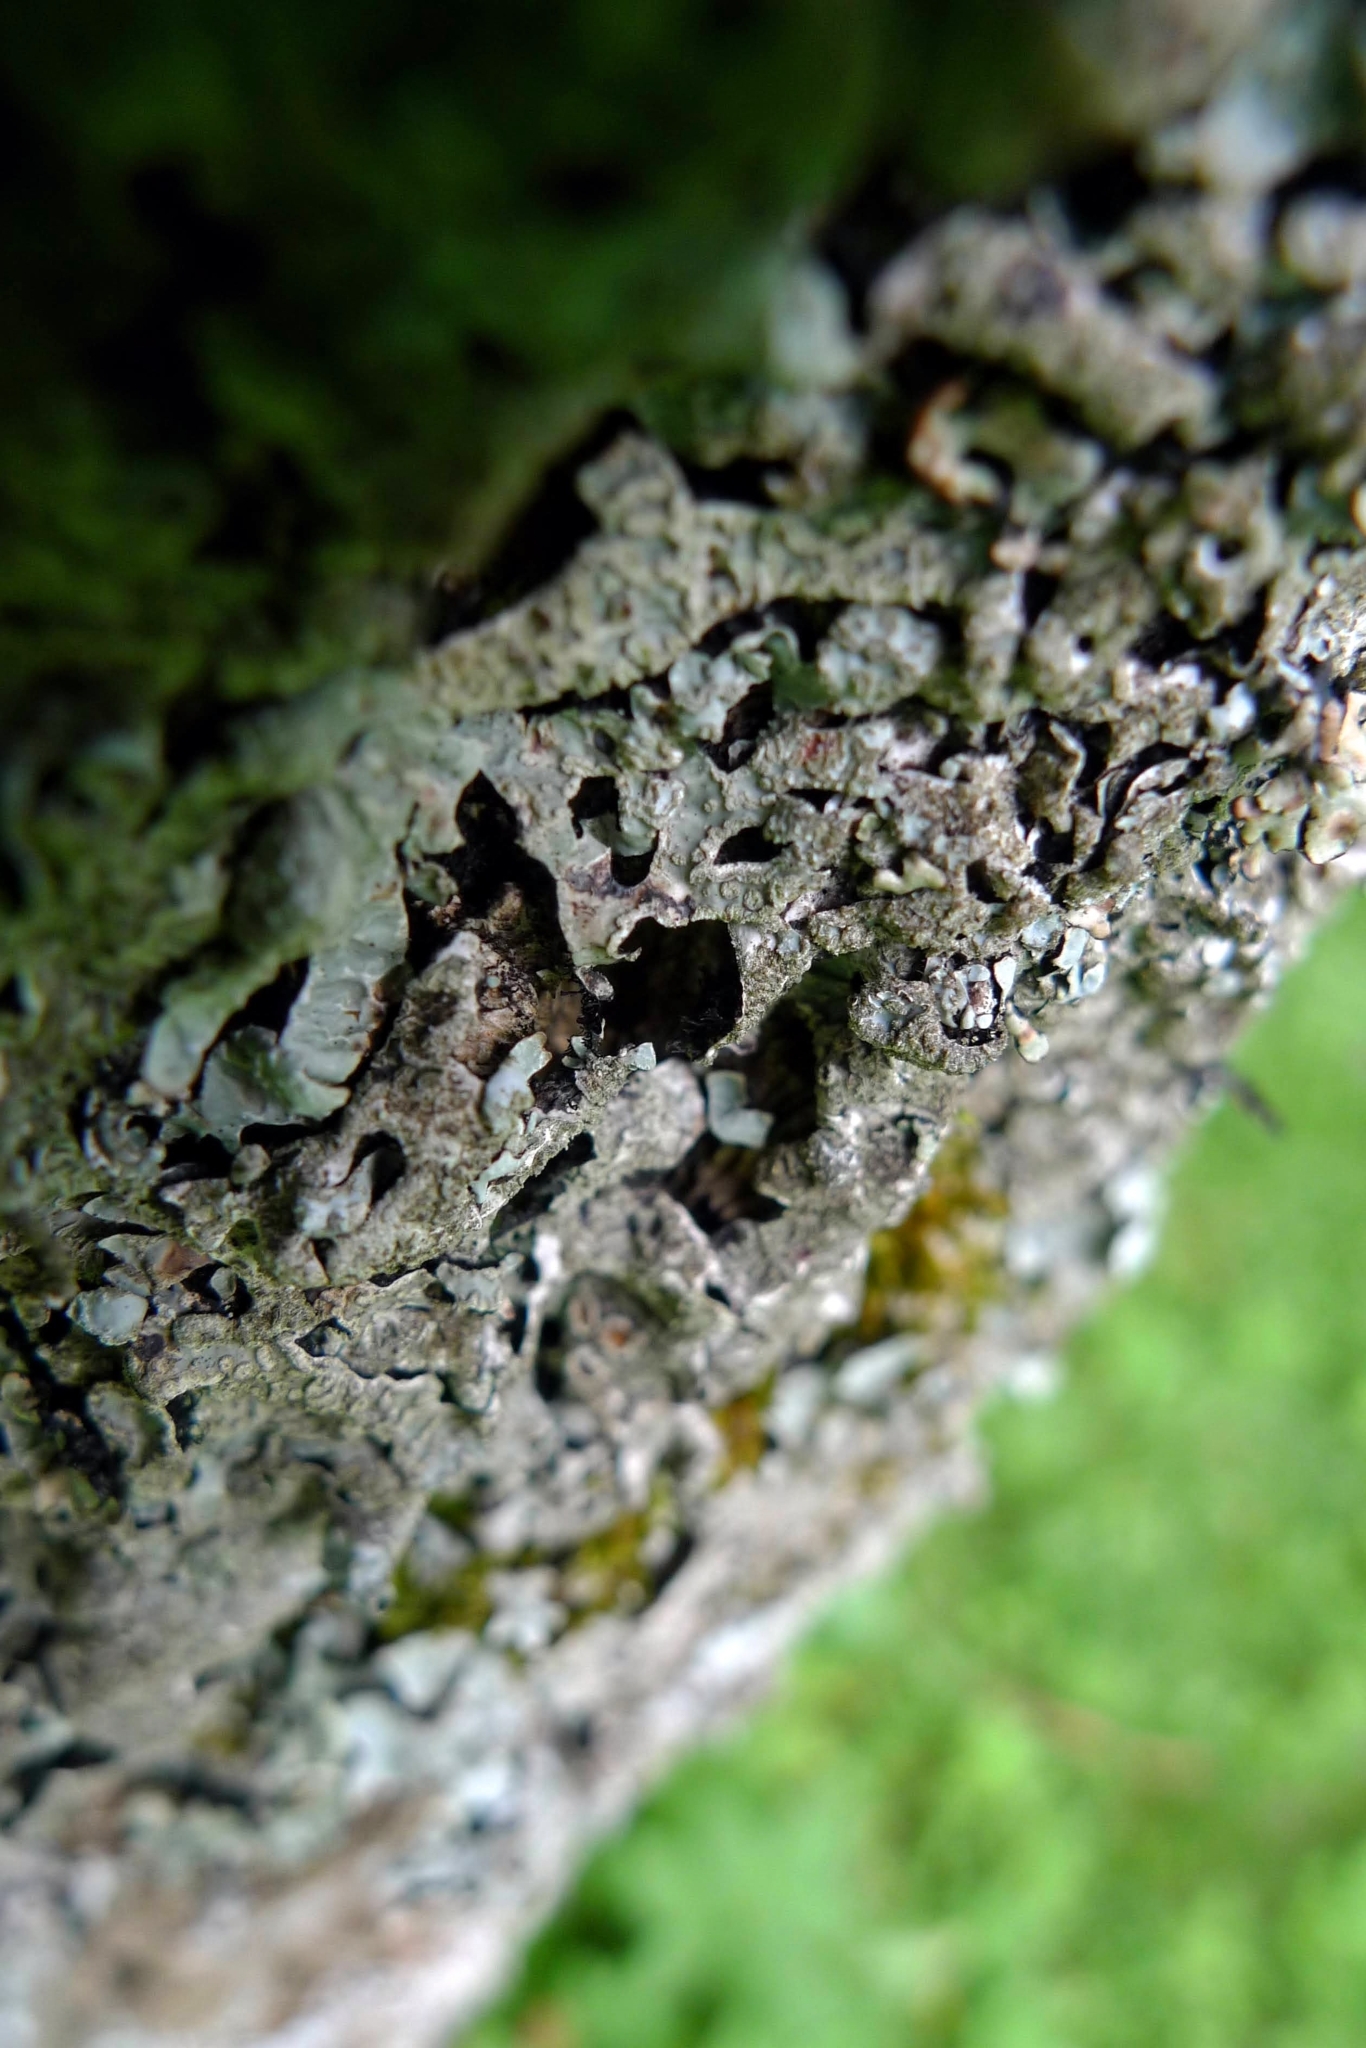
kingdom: Fungi
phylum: Ascomycota
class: Lecanoromycetes
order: Lecanorales
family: Parmeliaceae
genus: Parmelia
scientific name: Parmelia sulcata
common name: Netted shield lichen
